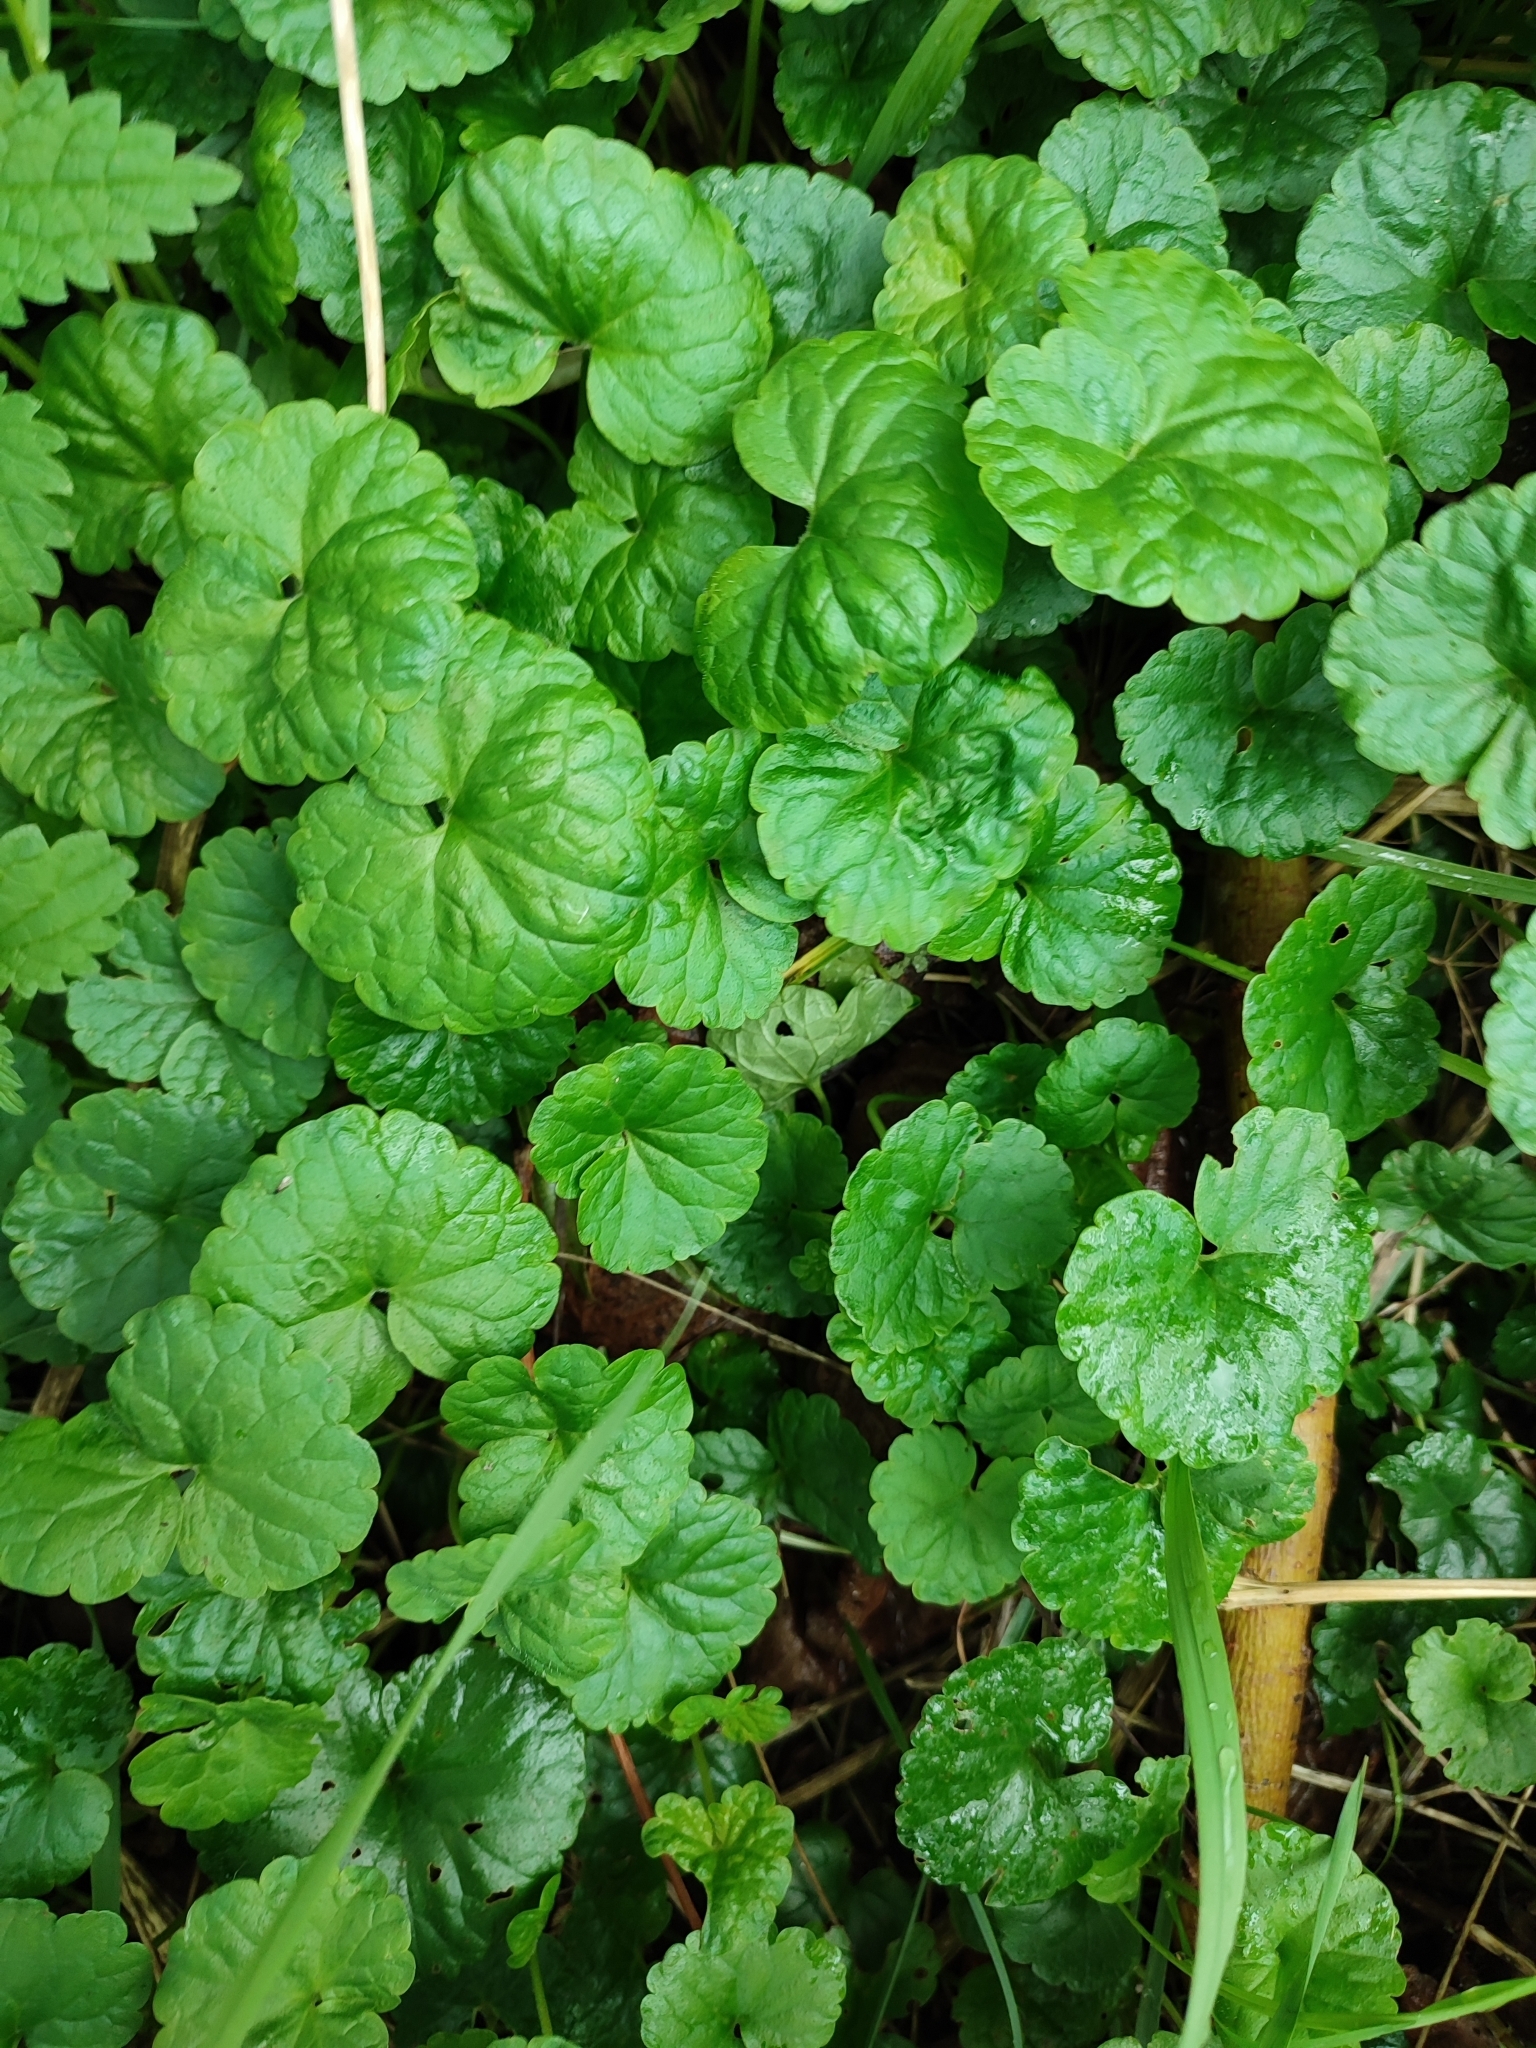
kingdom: Plantae
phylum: Tracheophyta
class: Magnoliopsida
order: Lamiales
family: Lamiaceae
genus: Glechoma
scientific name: Glechoma hederacea
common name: Ground ivy
